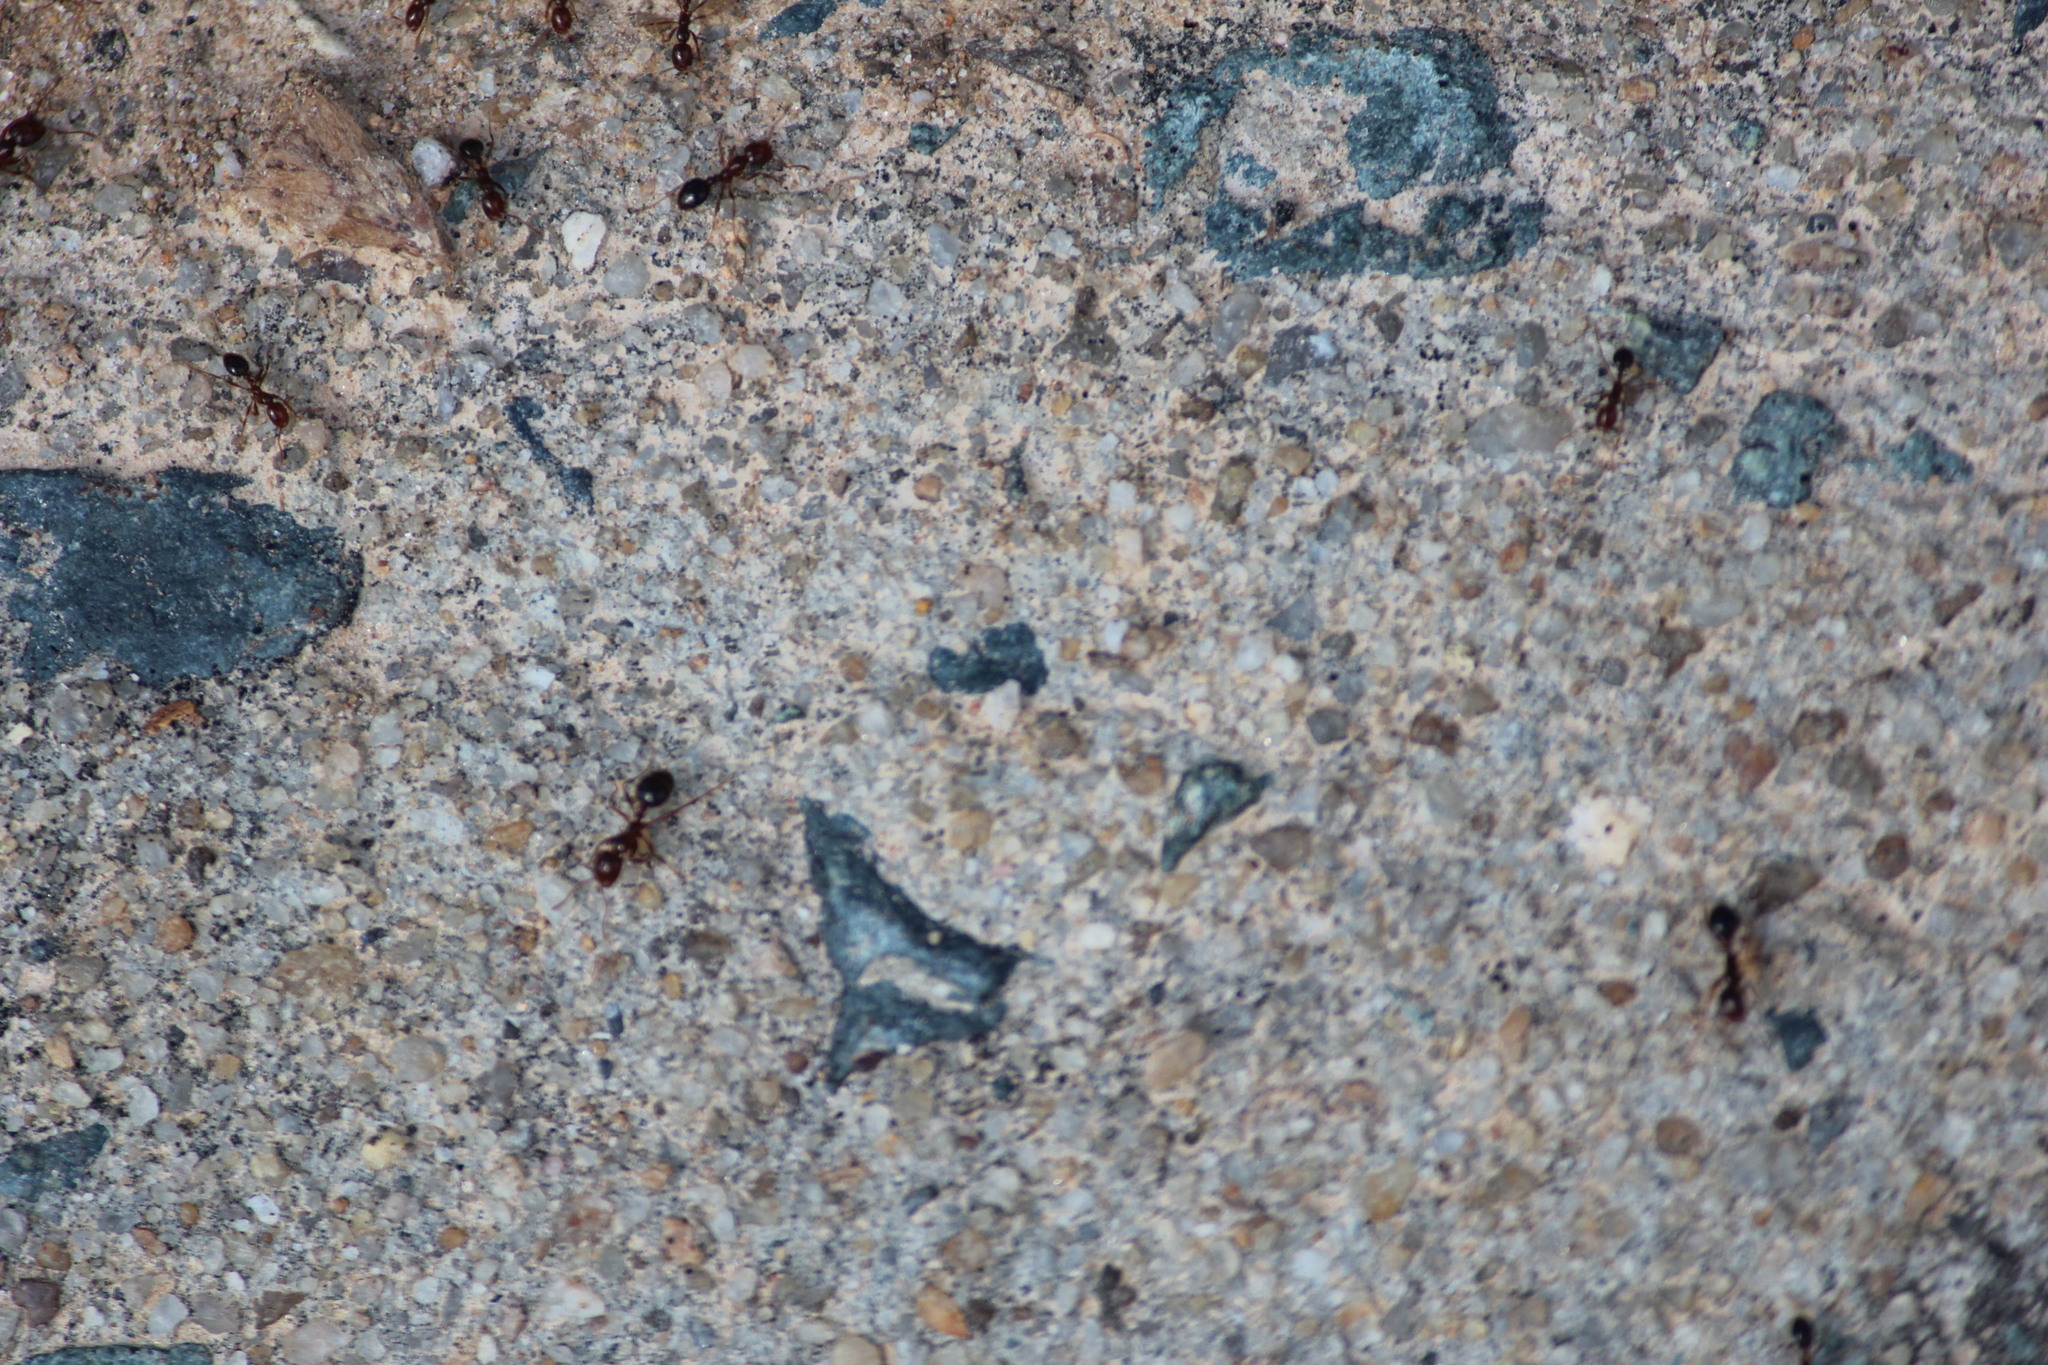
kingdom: Animalia
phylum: Arthropoda
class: Insecta
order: Hymenoptera
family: Formicidae
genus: Solenopsis
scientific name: Solenopsis invicta
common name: Red imported fire ant
